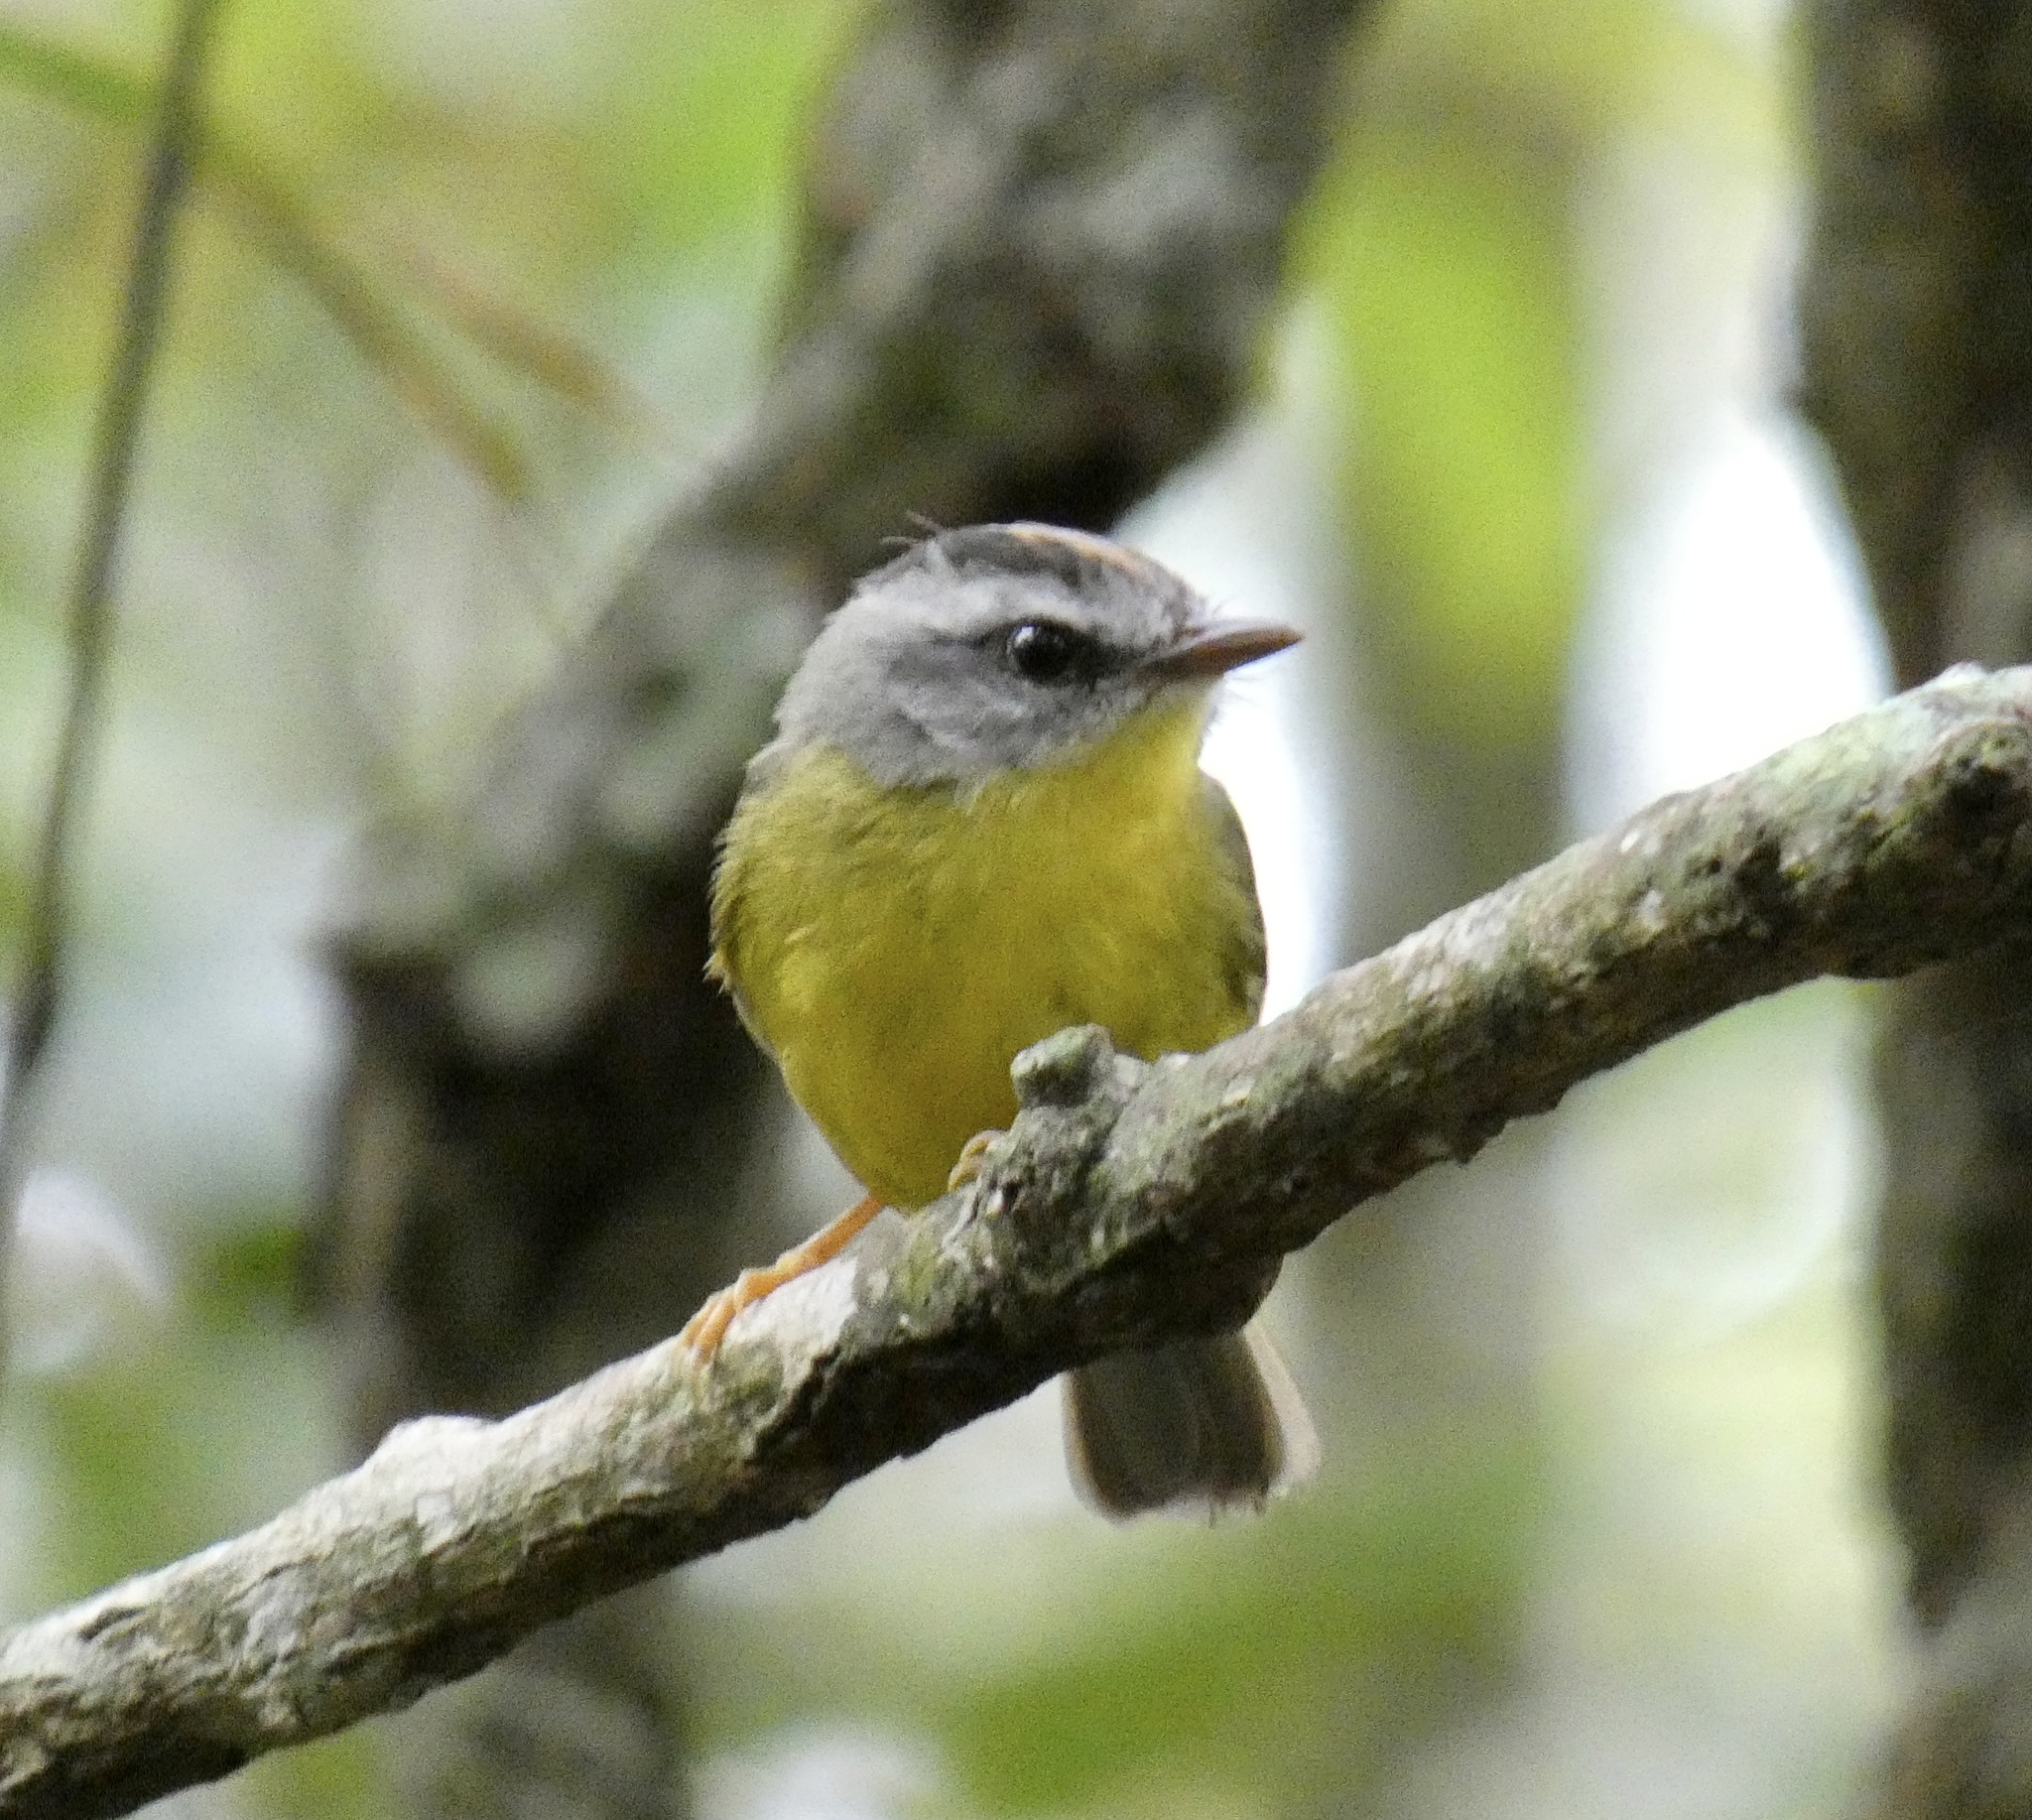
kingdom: Animalia
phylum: Chordata
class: Aves
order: Passeriformes
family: Parulidae
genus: Basileuterus
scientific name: Basileuterus culicivorus
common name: Golden-crowned warbler
